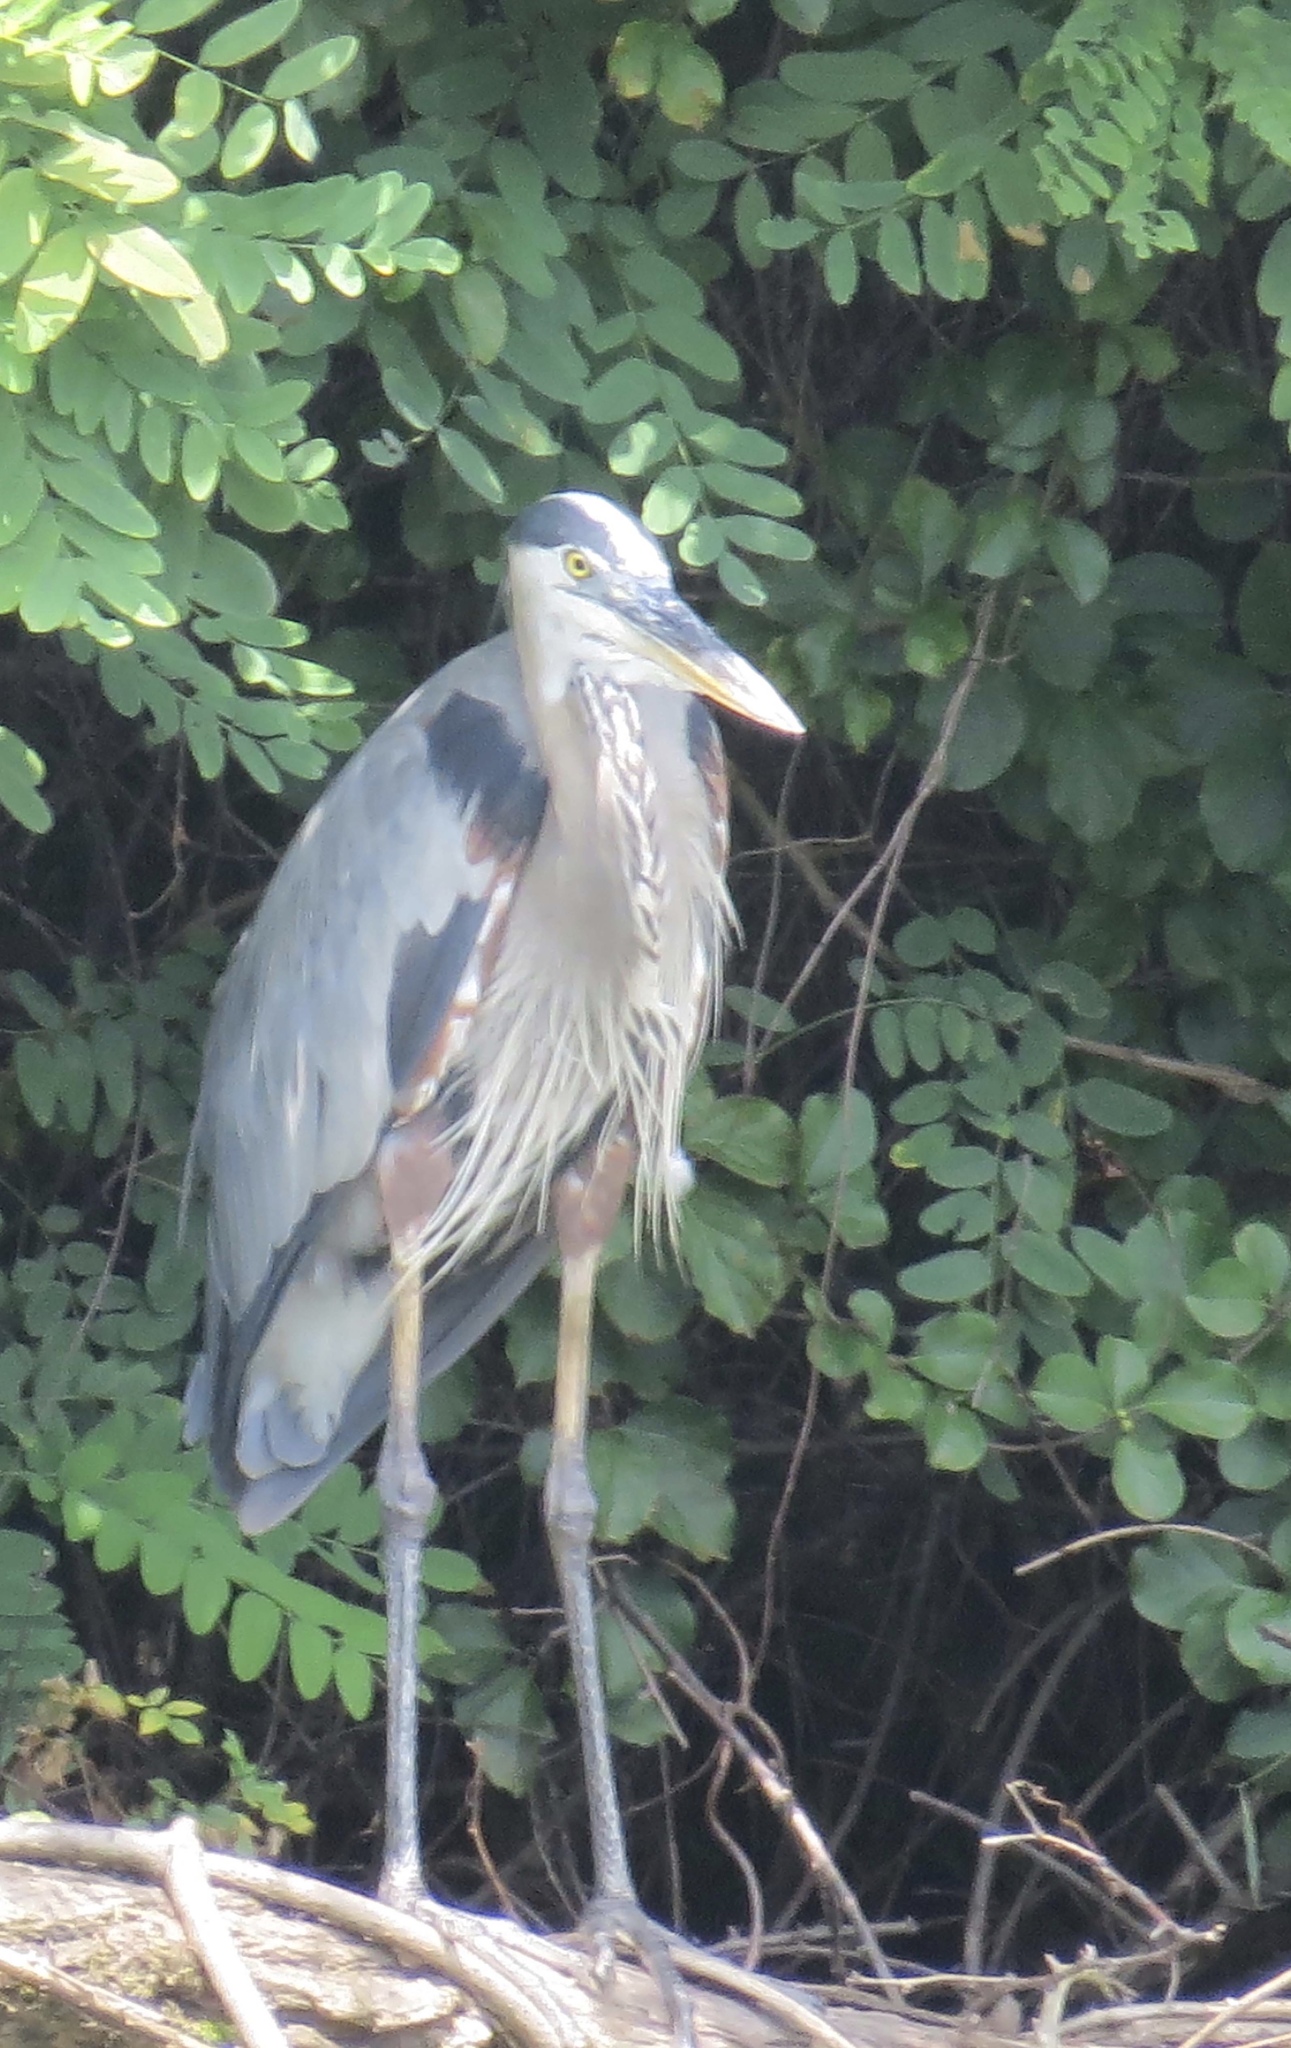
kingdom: Animalia
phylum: Chordata
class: Aves
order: Pelecaniformes
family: Ardeidae
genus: Ardea
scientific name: Ardea herodias
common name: Great blue heron
